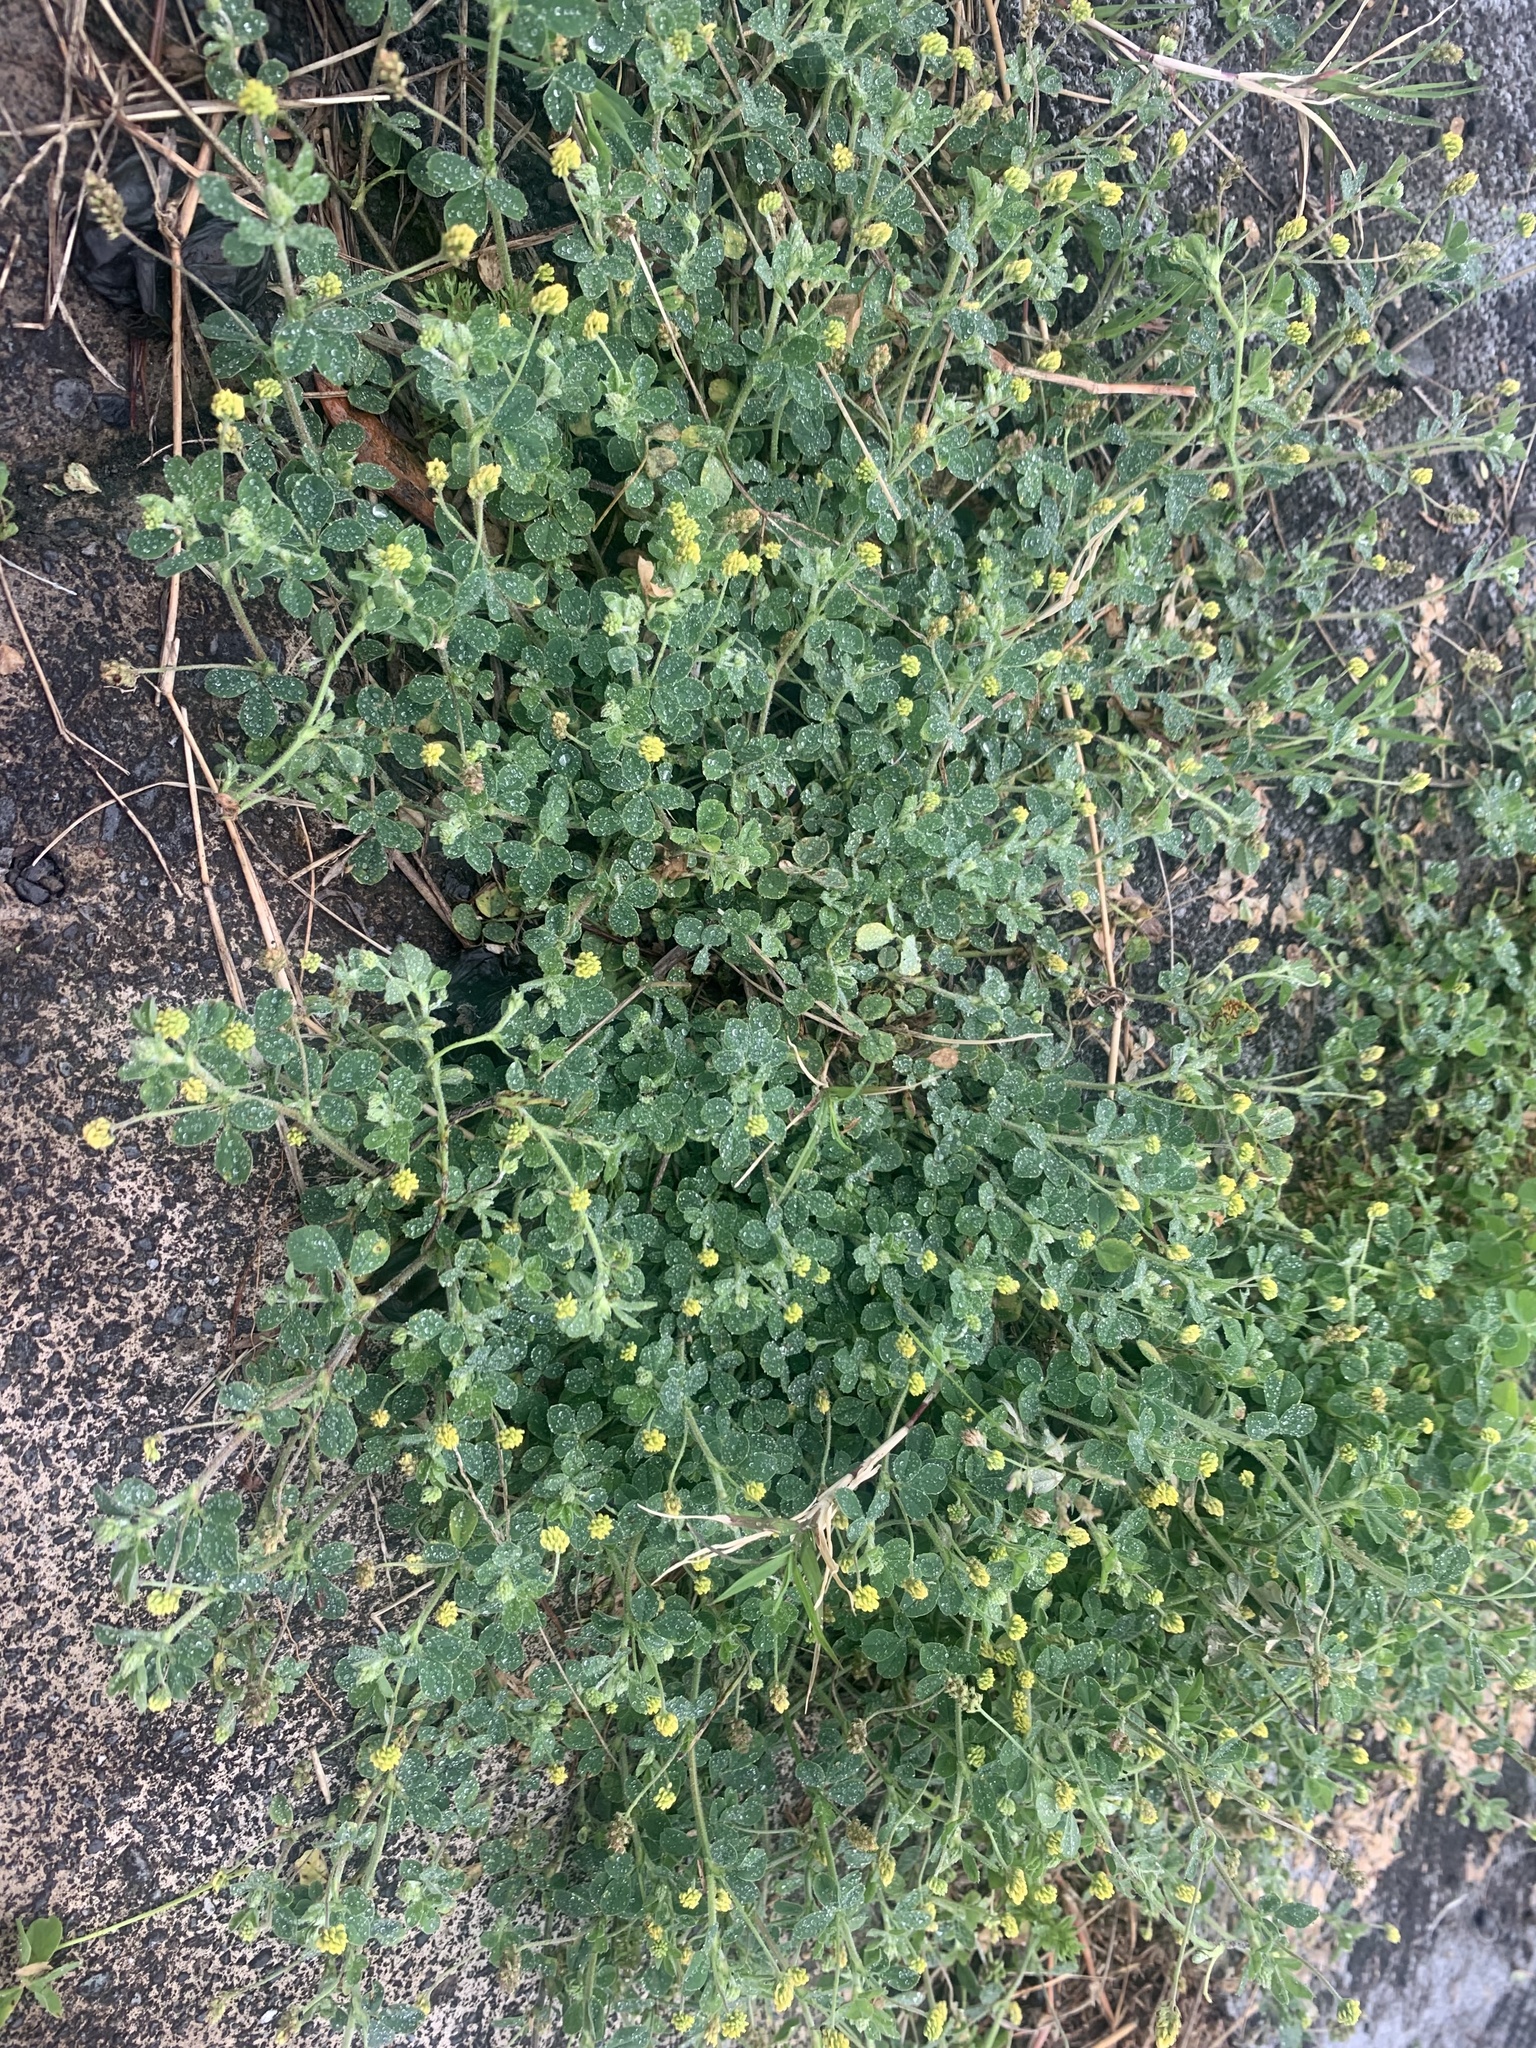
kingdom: Plantae
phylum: Tracheophyta
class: Magnoliopsida
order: Fabales
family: Fabaceae
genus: Medicago
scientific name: Medicago lupulina
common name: Black medick
